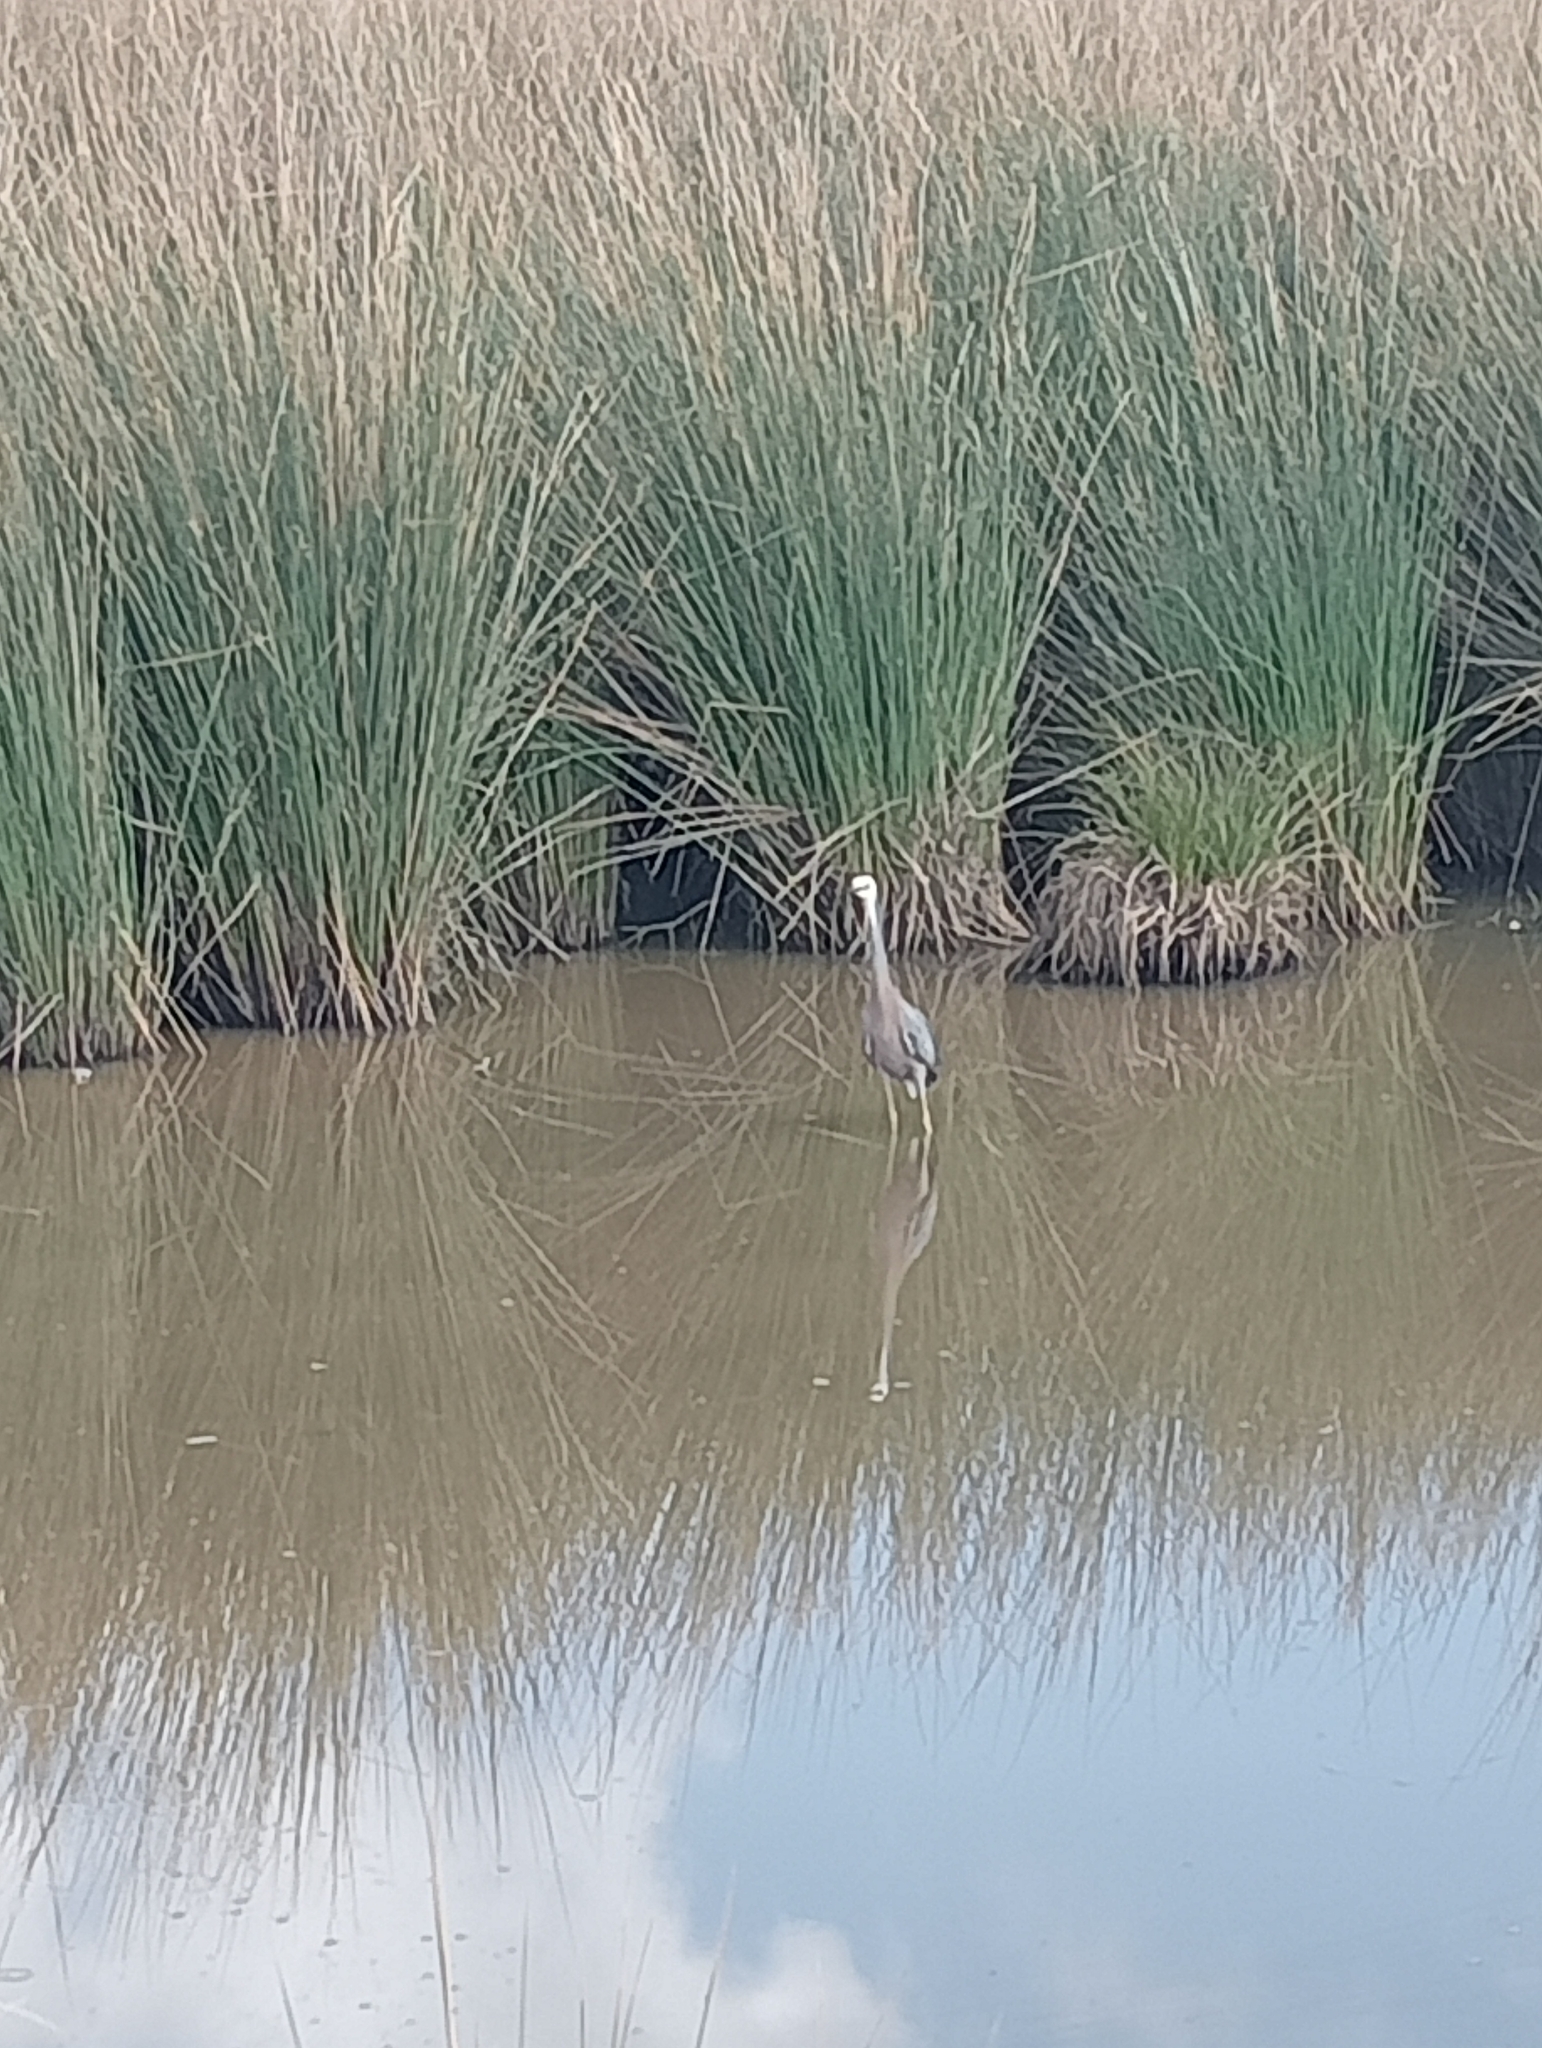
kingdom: Animalia
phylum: Chordata
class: Aves
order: Pelecaniformes
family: Ardeidae
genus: Egretta
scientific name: Egretta novaehollandiae
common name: White-faced heron
